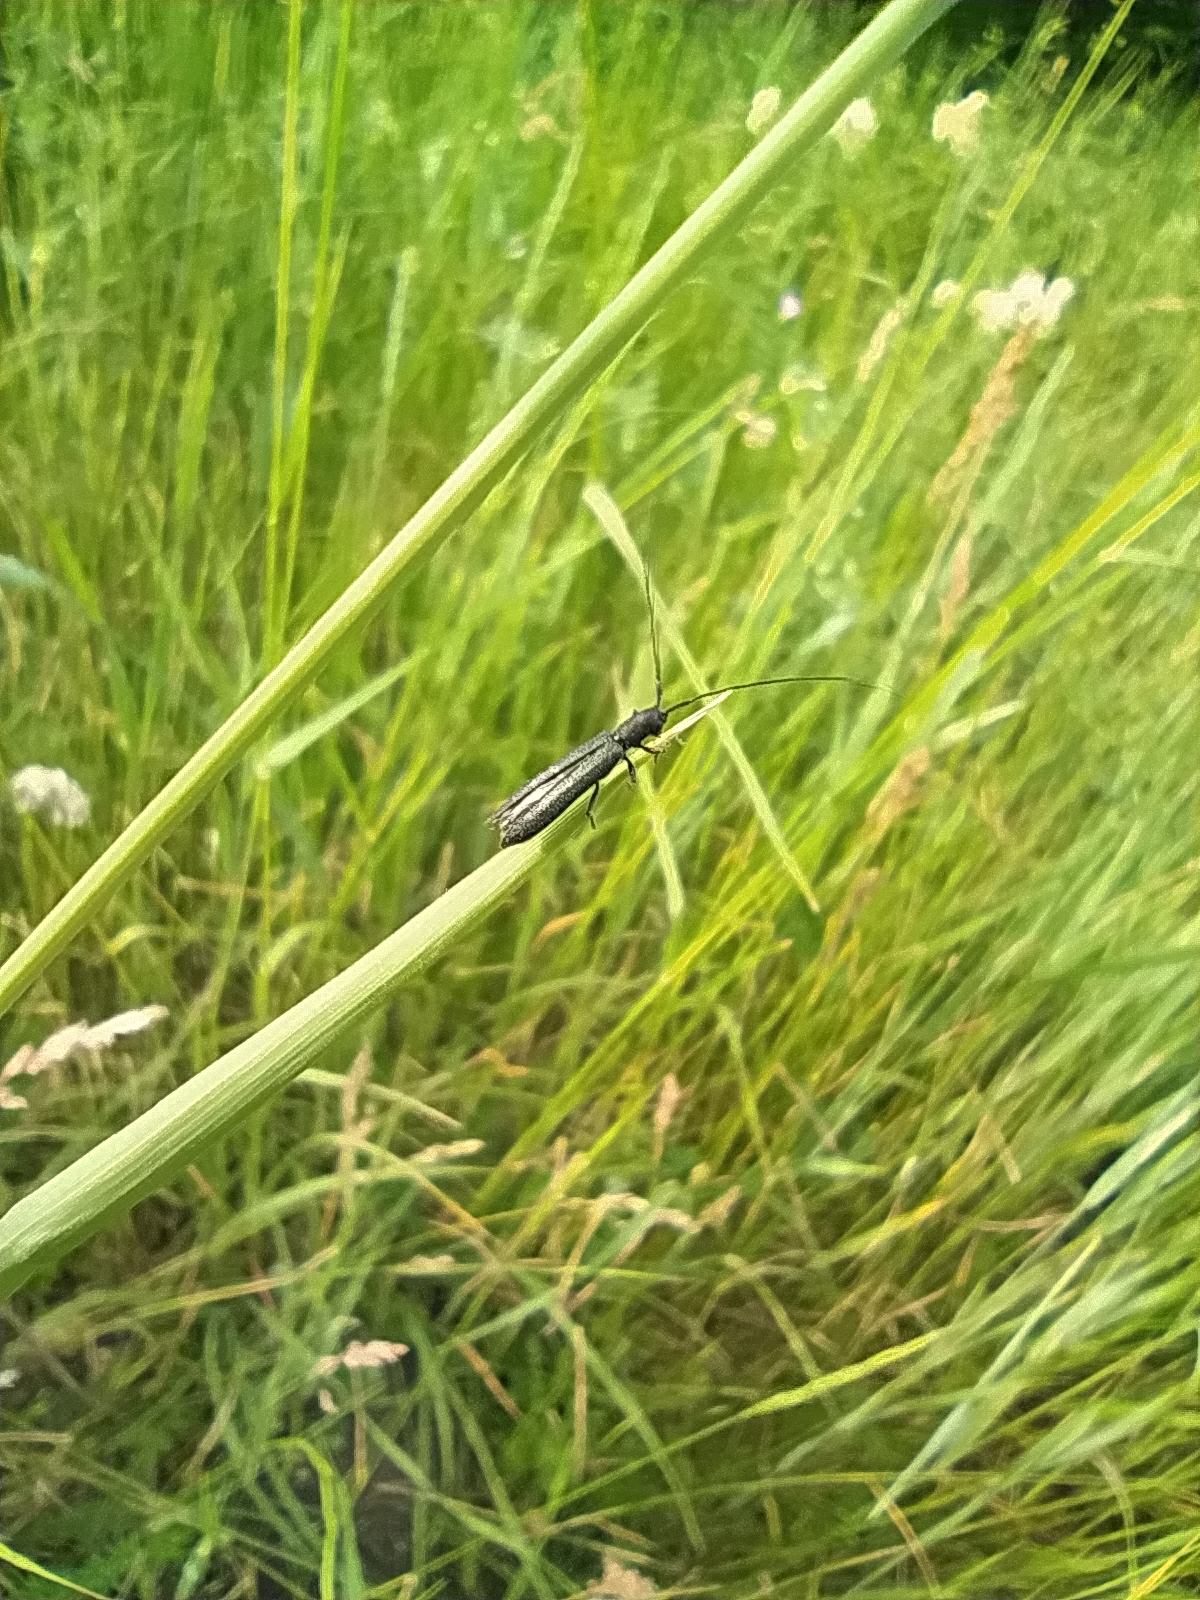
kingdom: Animalia
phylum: Arthropoda
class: Insecta
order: Coleoptera
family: Cerambycidae
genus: Theophilea
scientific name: Theophilea subcylindricollis
